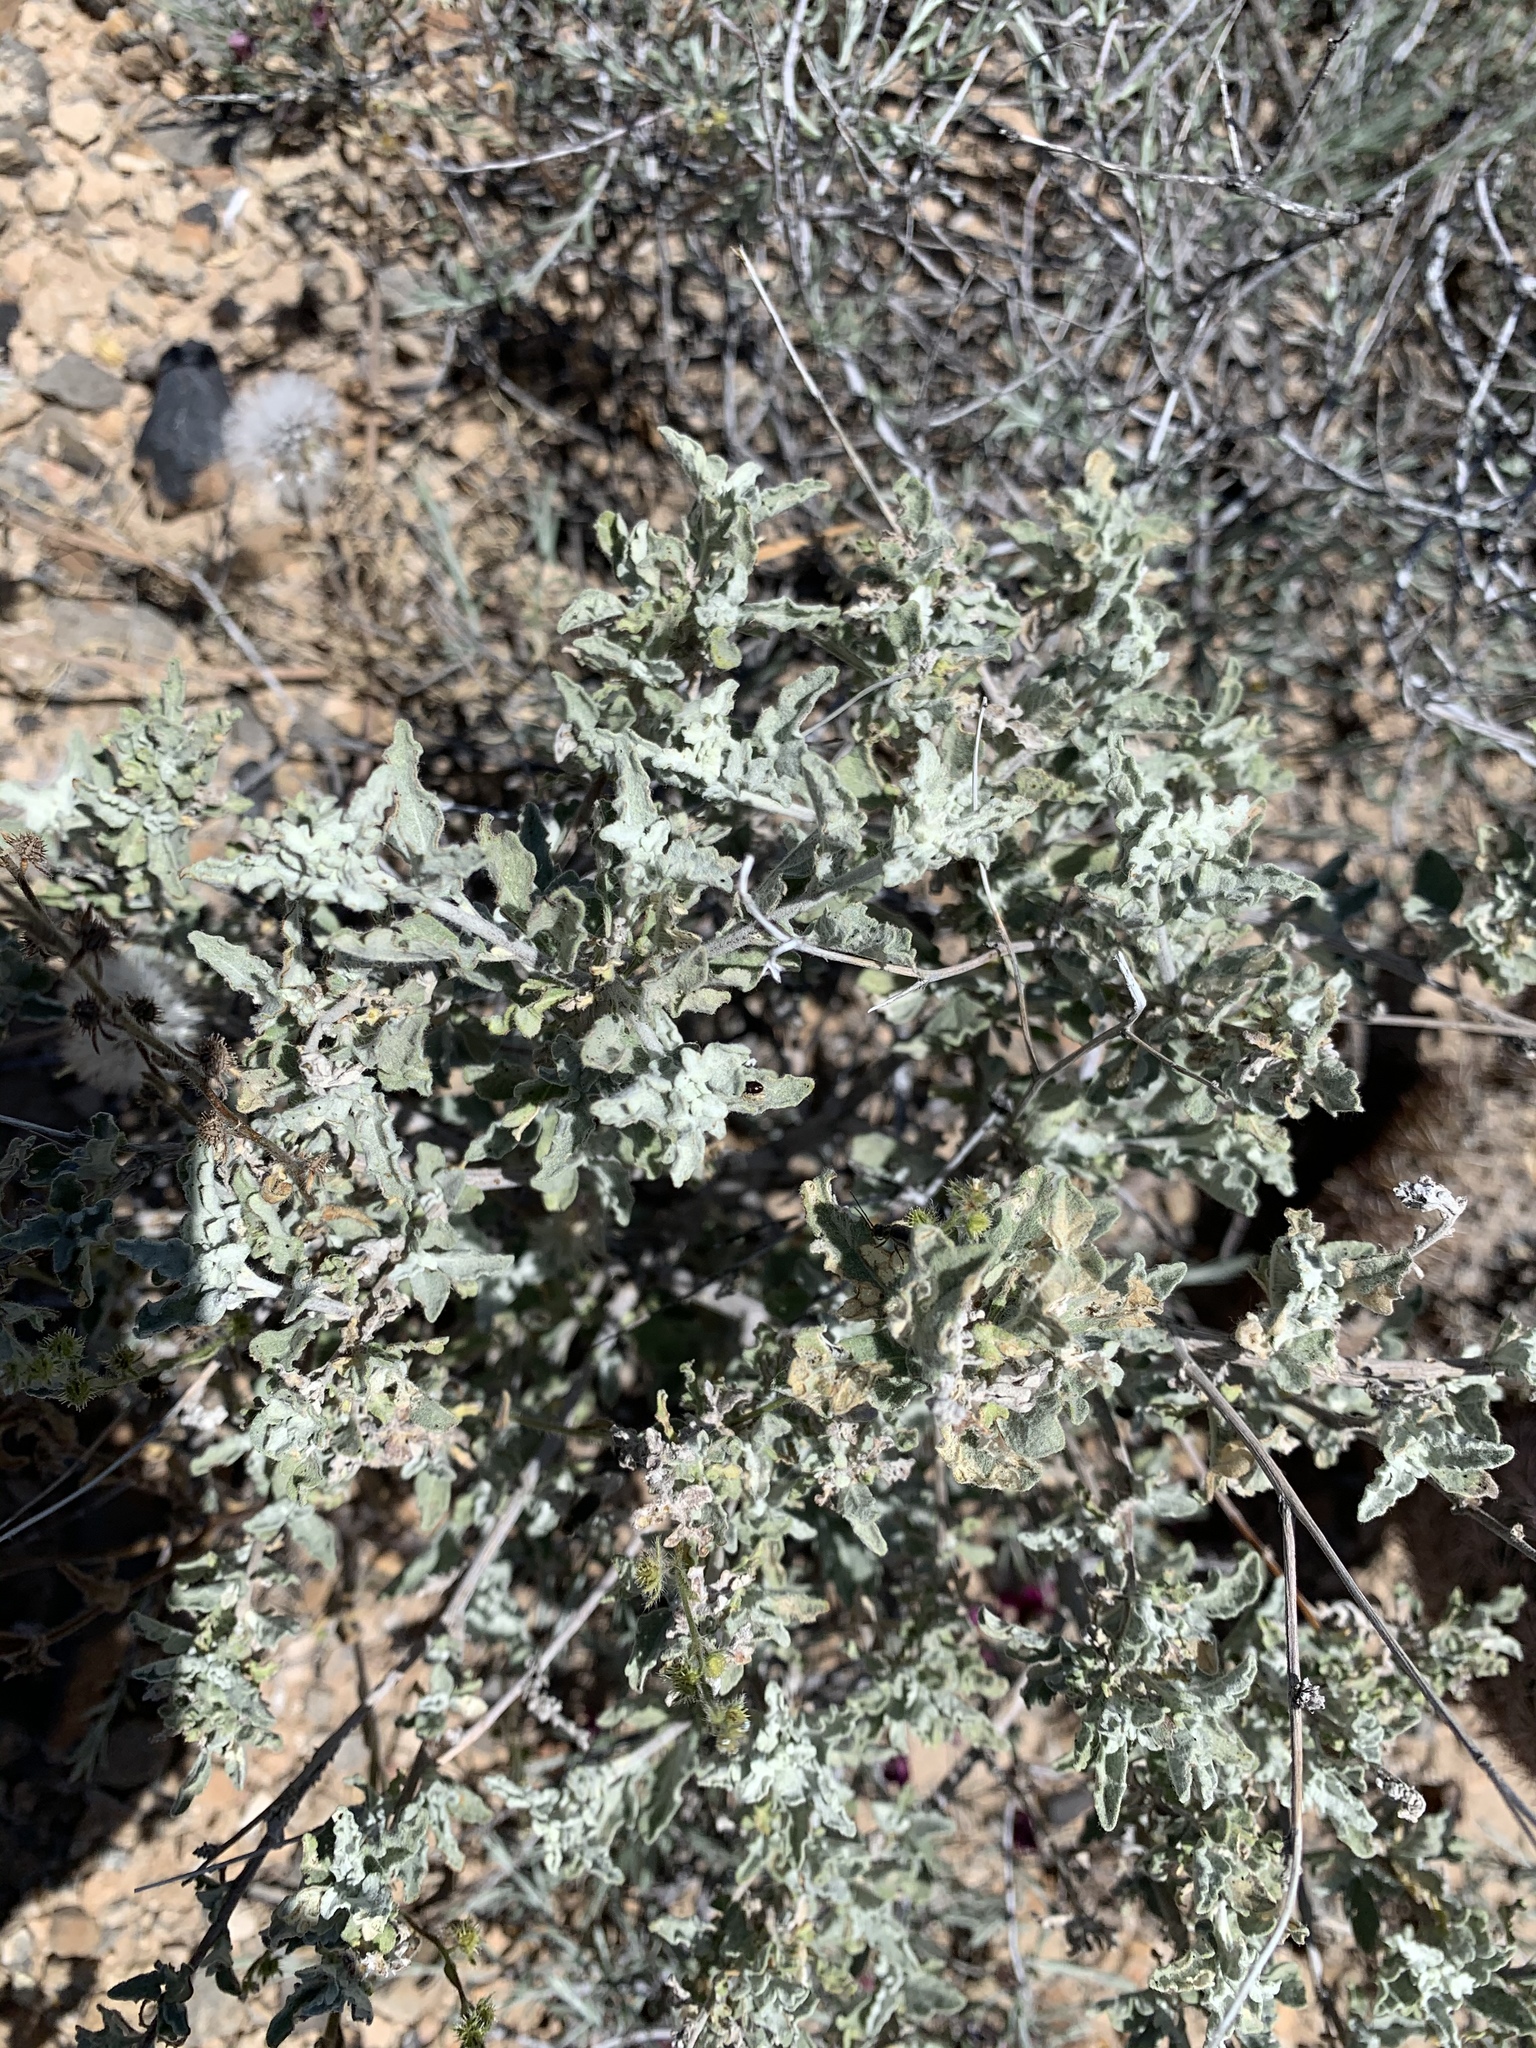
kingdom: Plantae
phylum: Tracheophyta
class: Magnoliopsida
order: Asterales
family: Asteraceae
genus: Parthenium
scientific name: Parthenium incanum
